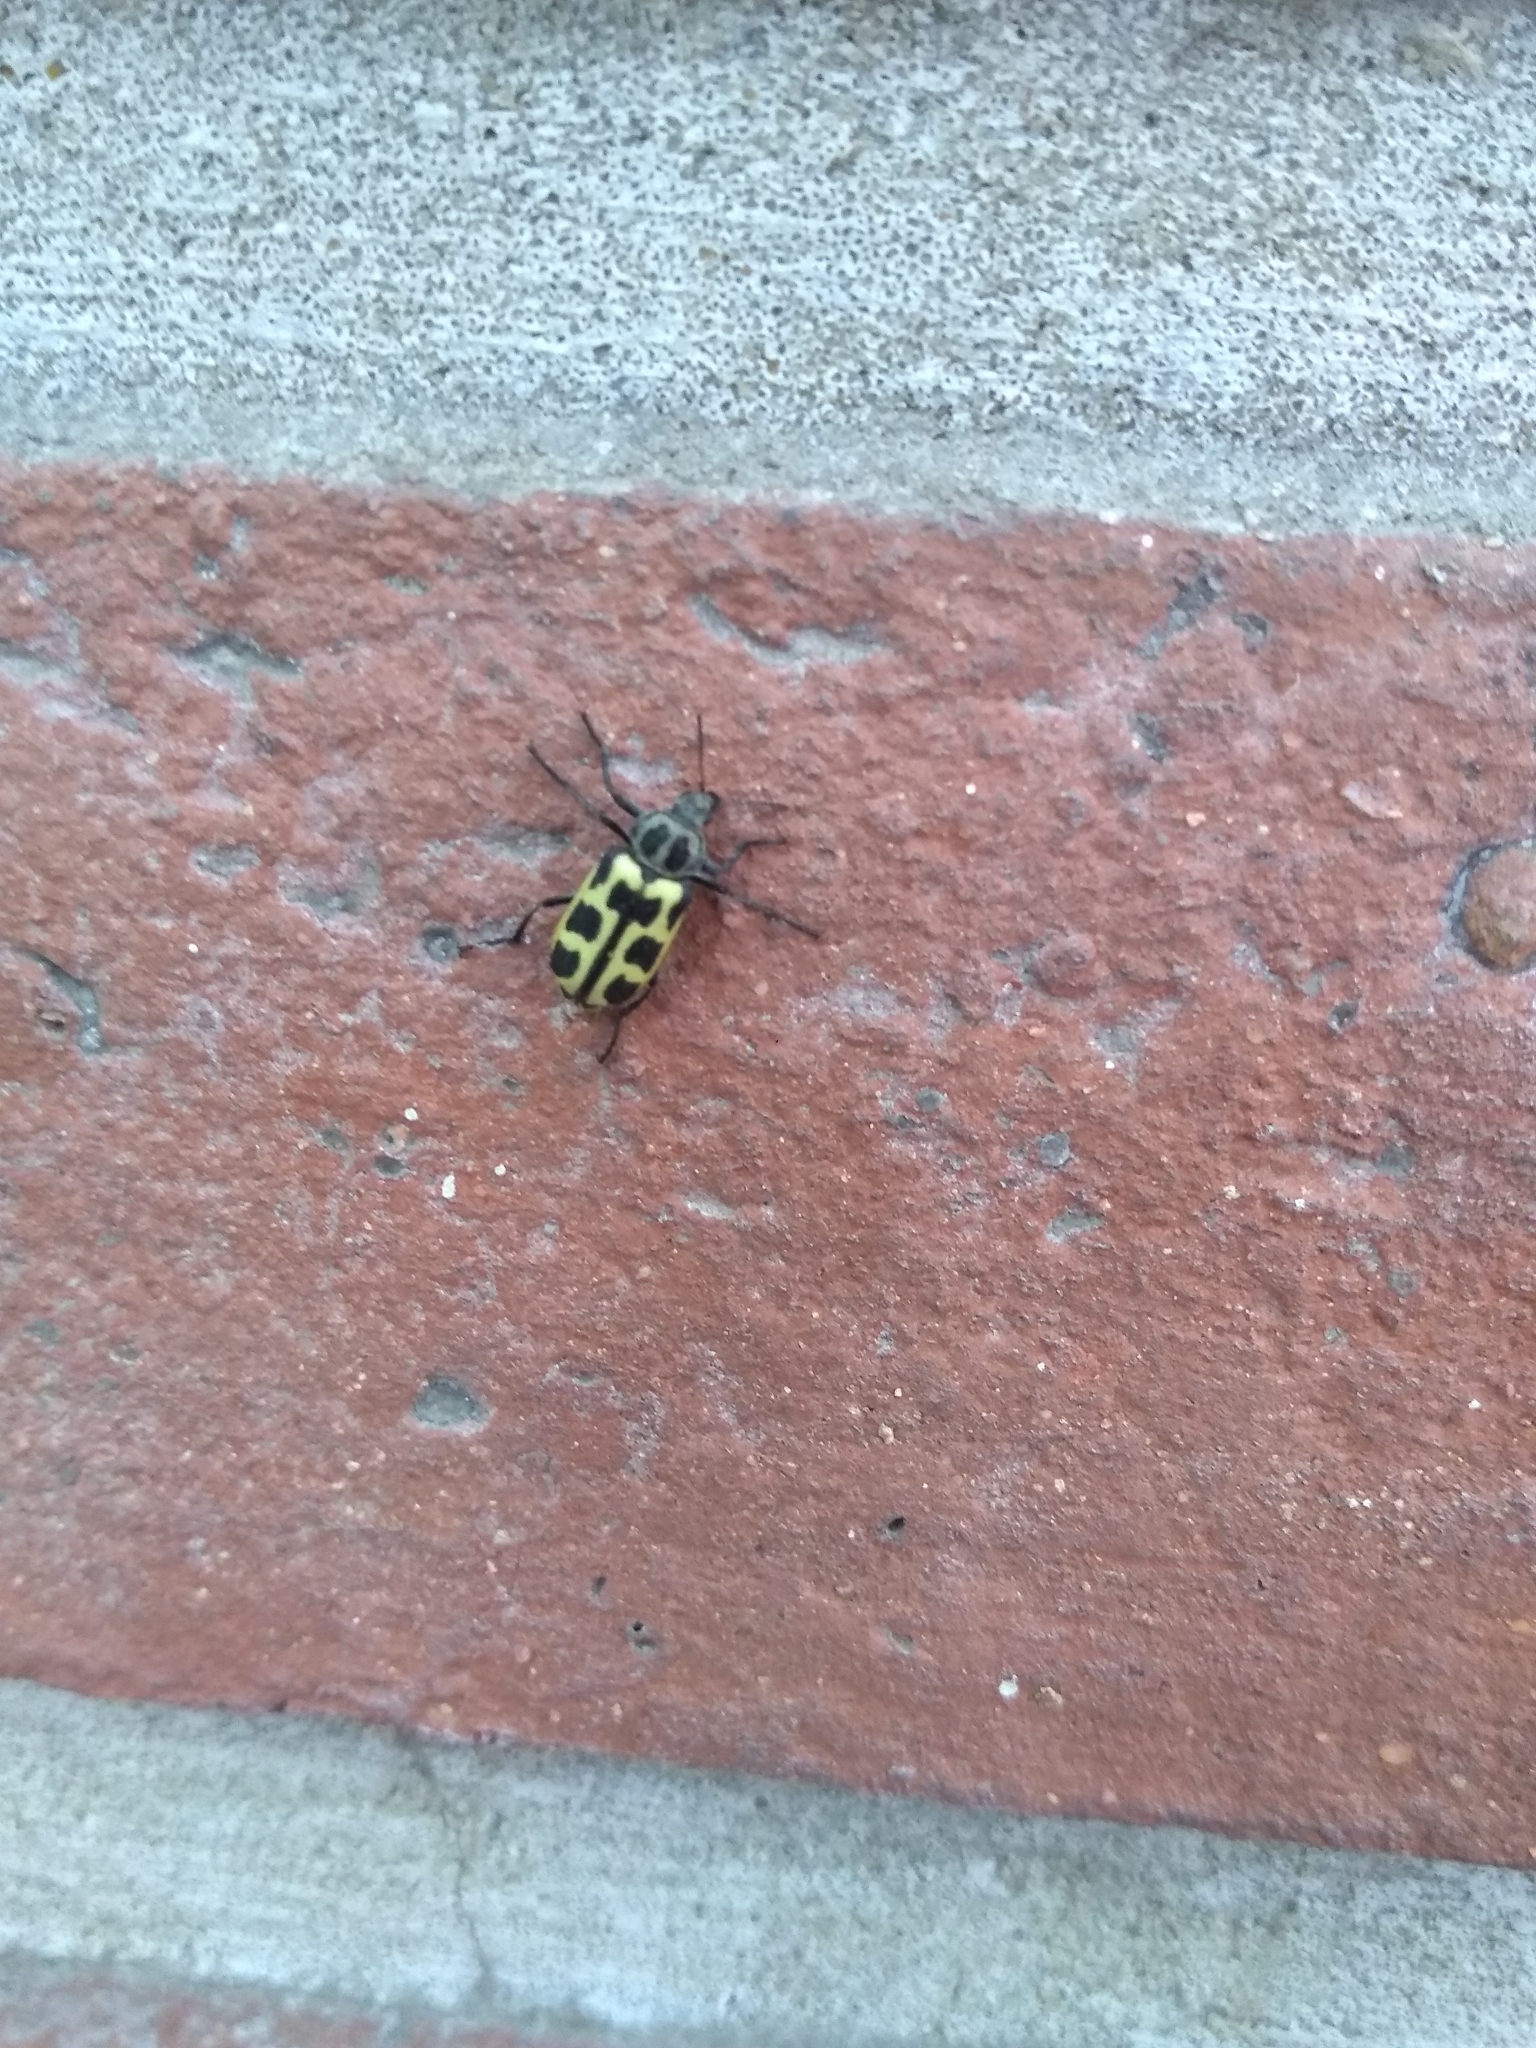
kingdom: Animalia
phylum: Arthropoda
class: Insecta
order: Coleoptera
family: Melyridae
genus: Astylus
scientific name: Astylus atromaculatus
